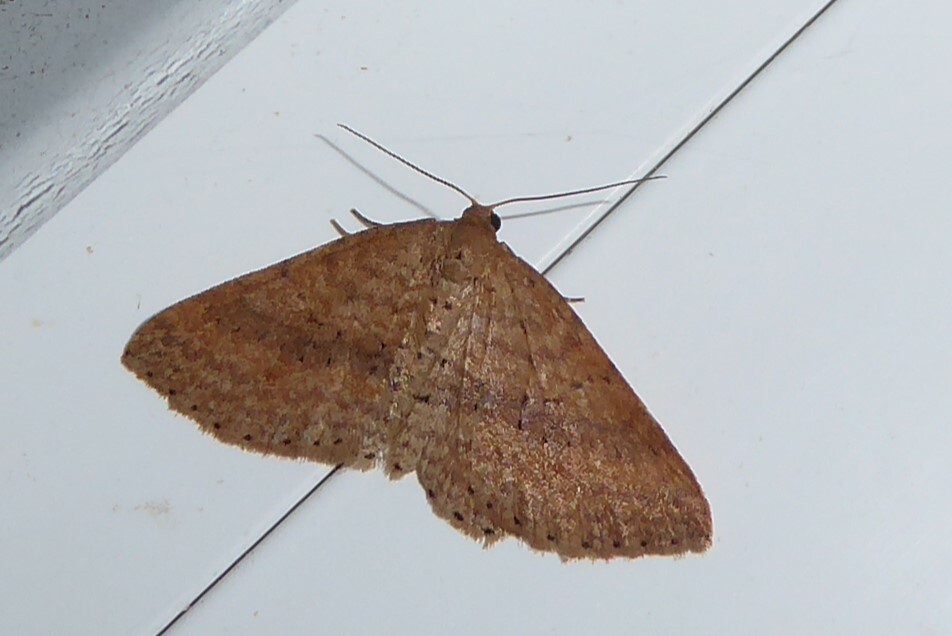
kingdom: Animalia
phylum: Arthropoda
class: Insecta
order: Lepidoptera
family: Geometridae
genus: Epicyme
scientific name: Epicyme rubropunctaria
